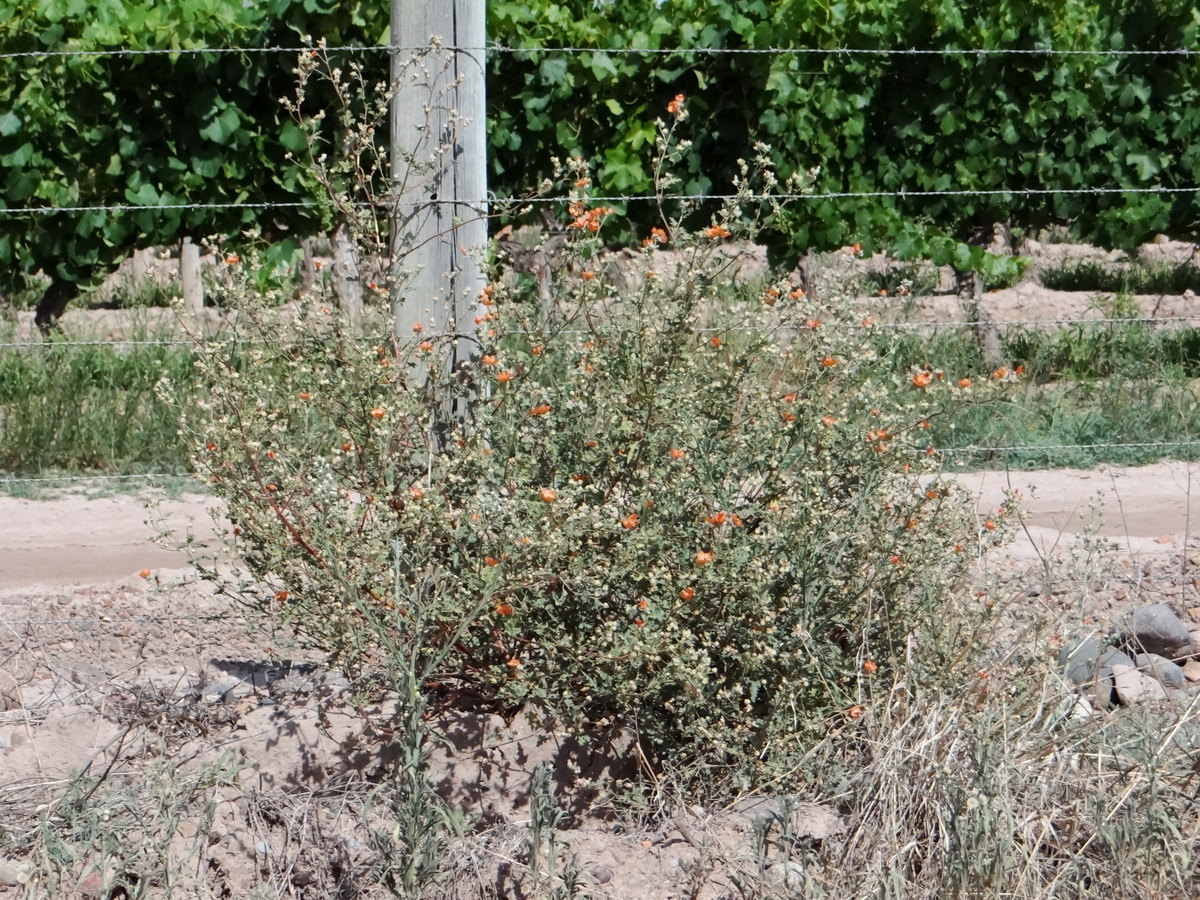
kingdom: Plantae
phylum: Tracheophyta
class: Magnoliopsida
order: Malvales
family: Malvaceae
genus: Sphaeralcea
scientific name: Sphaeralcea miniata
